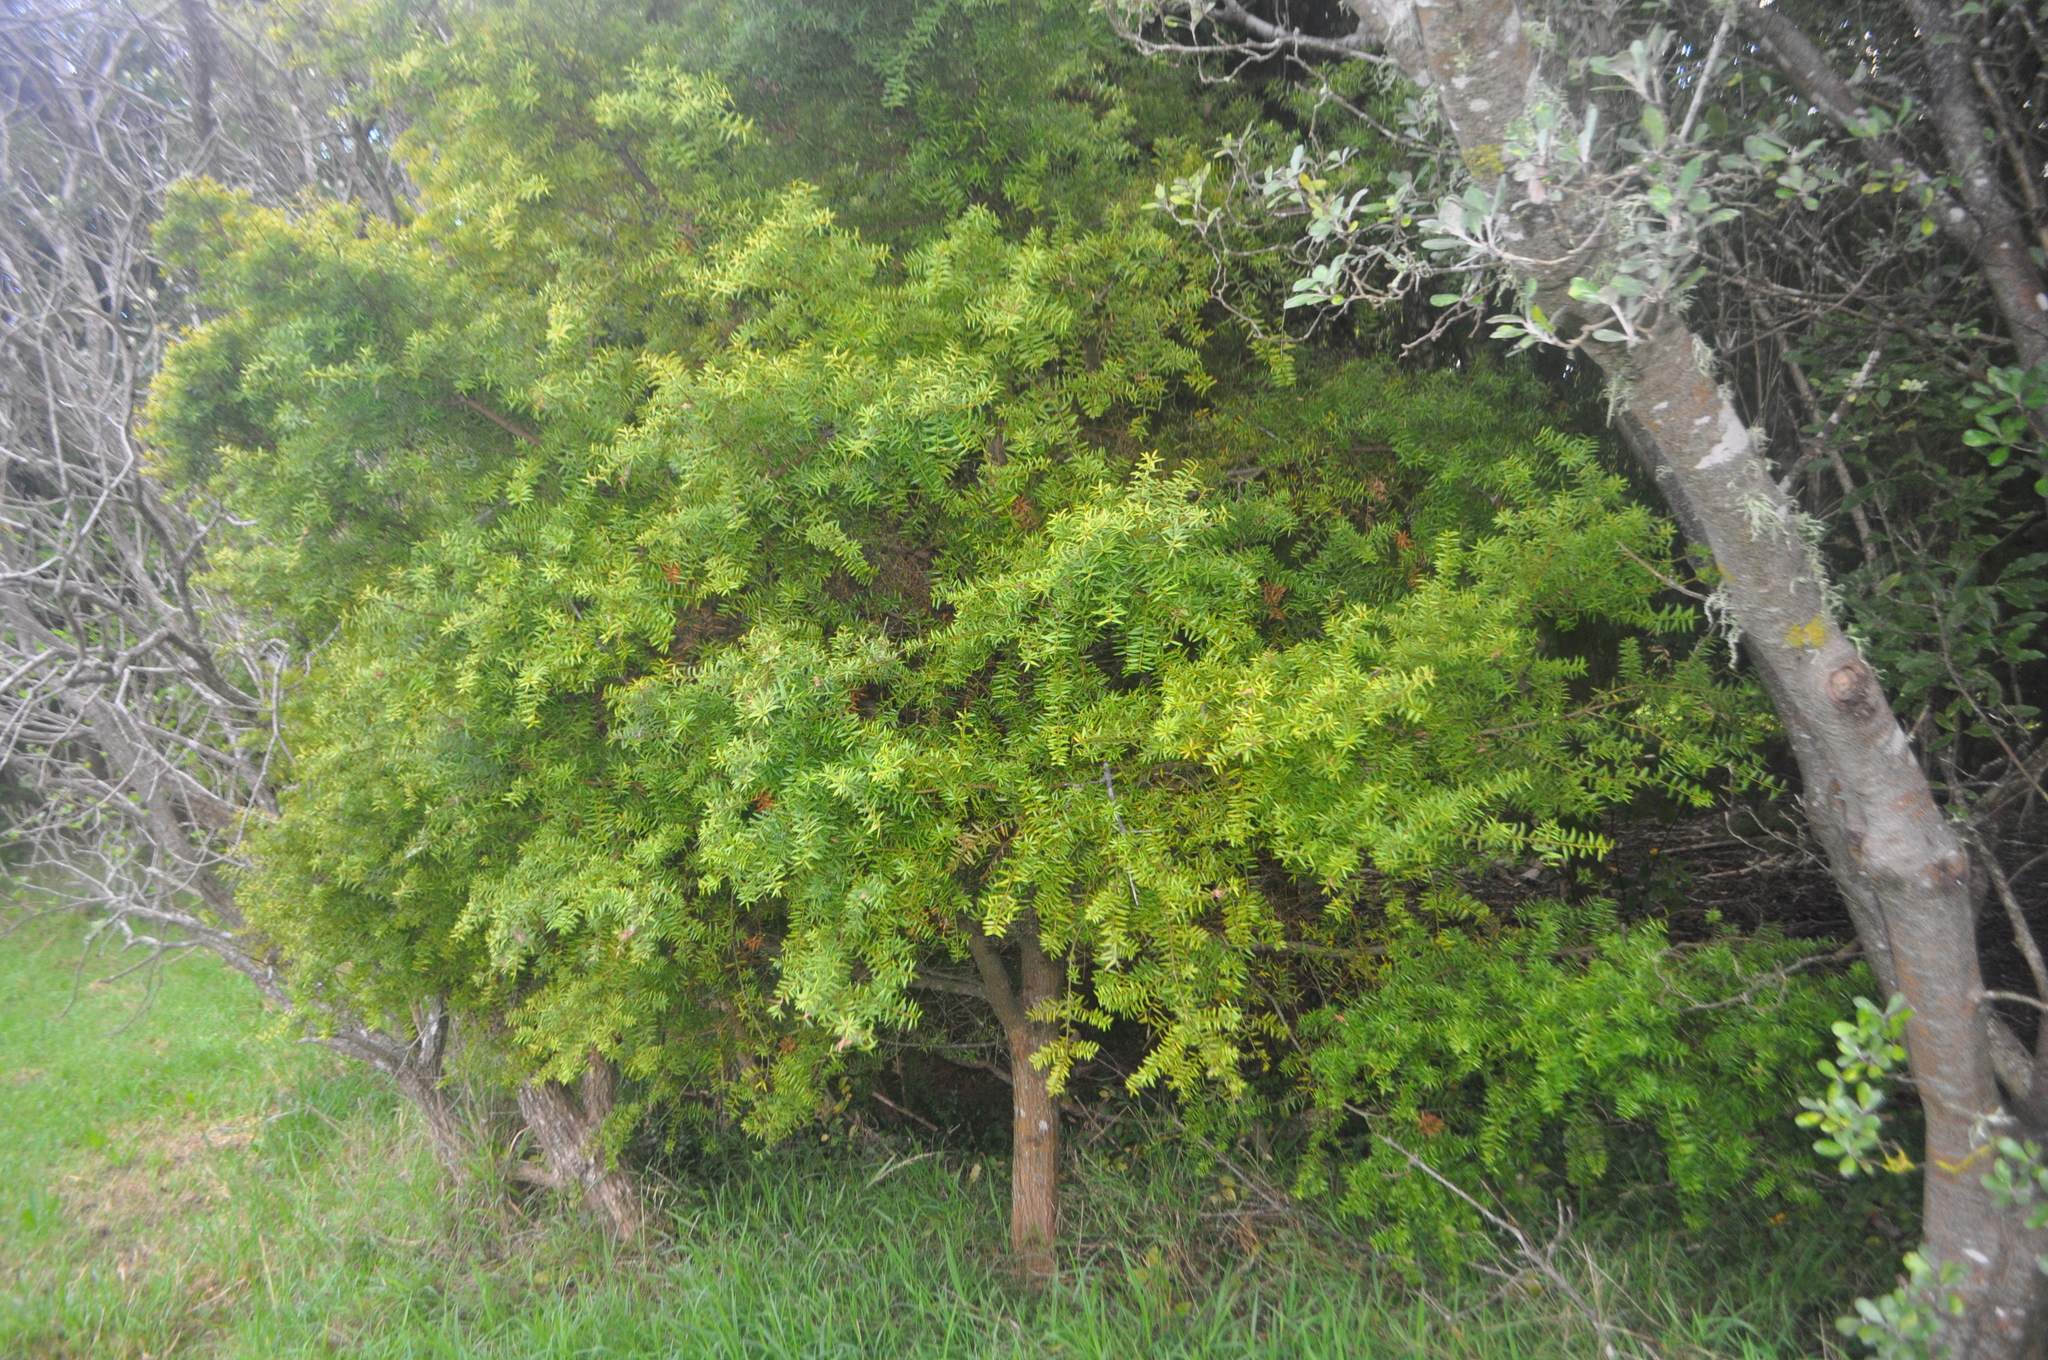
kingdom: Plantae
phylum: Tracheophyta
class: Pinopsida
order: Pinales
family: Podocarpaceae
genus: Podocarpus
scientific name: Podocarpus totara
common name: Totara
